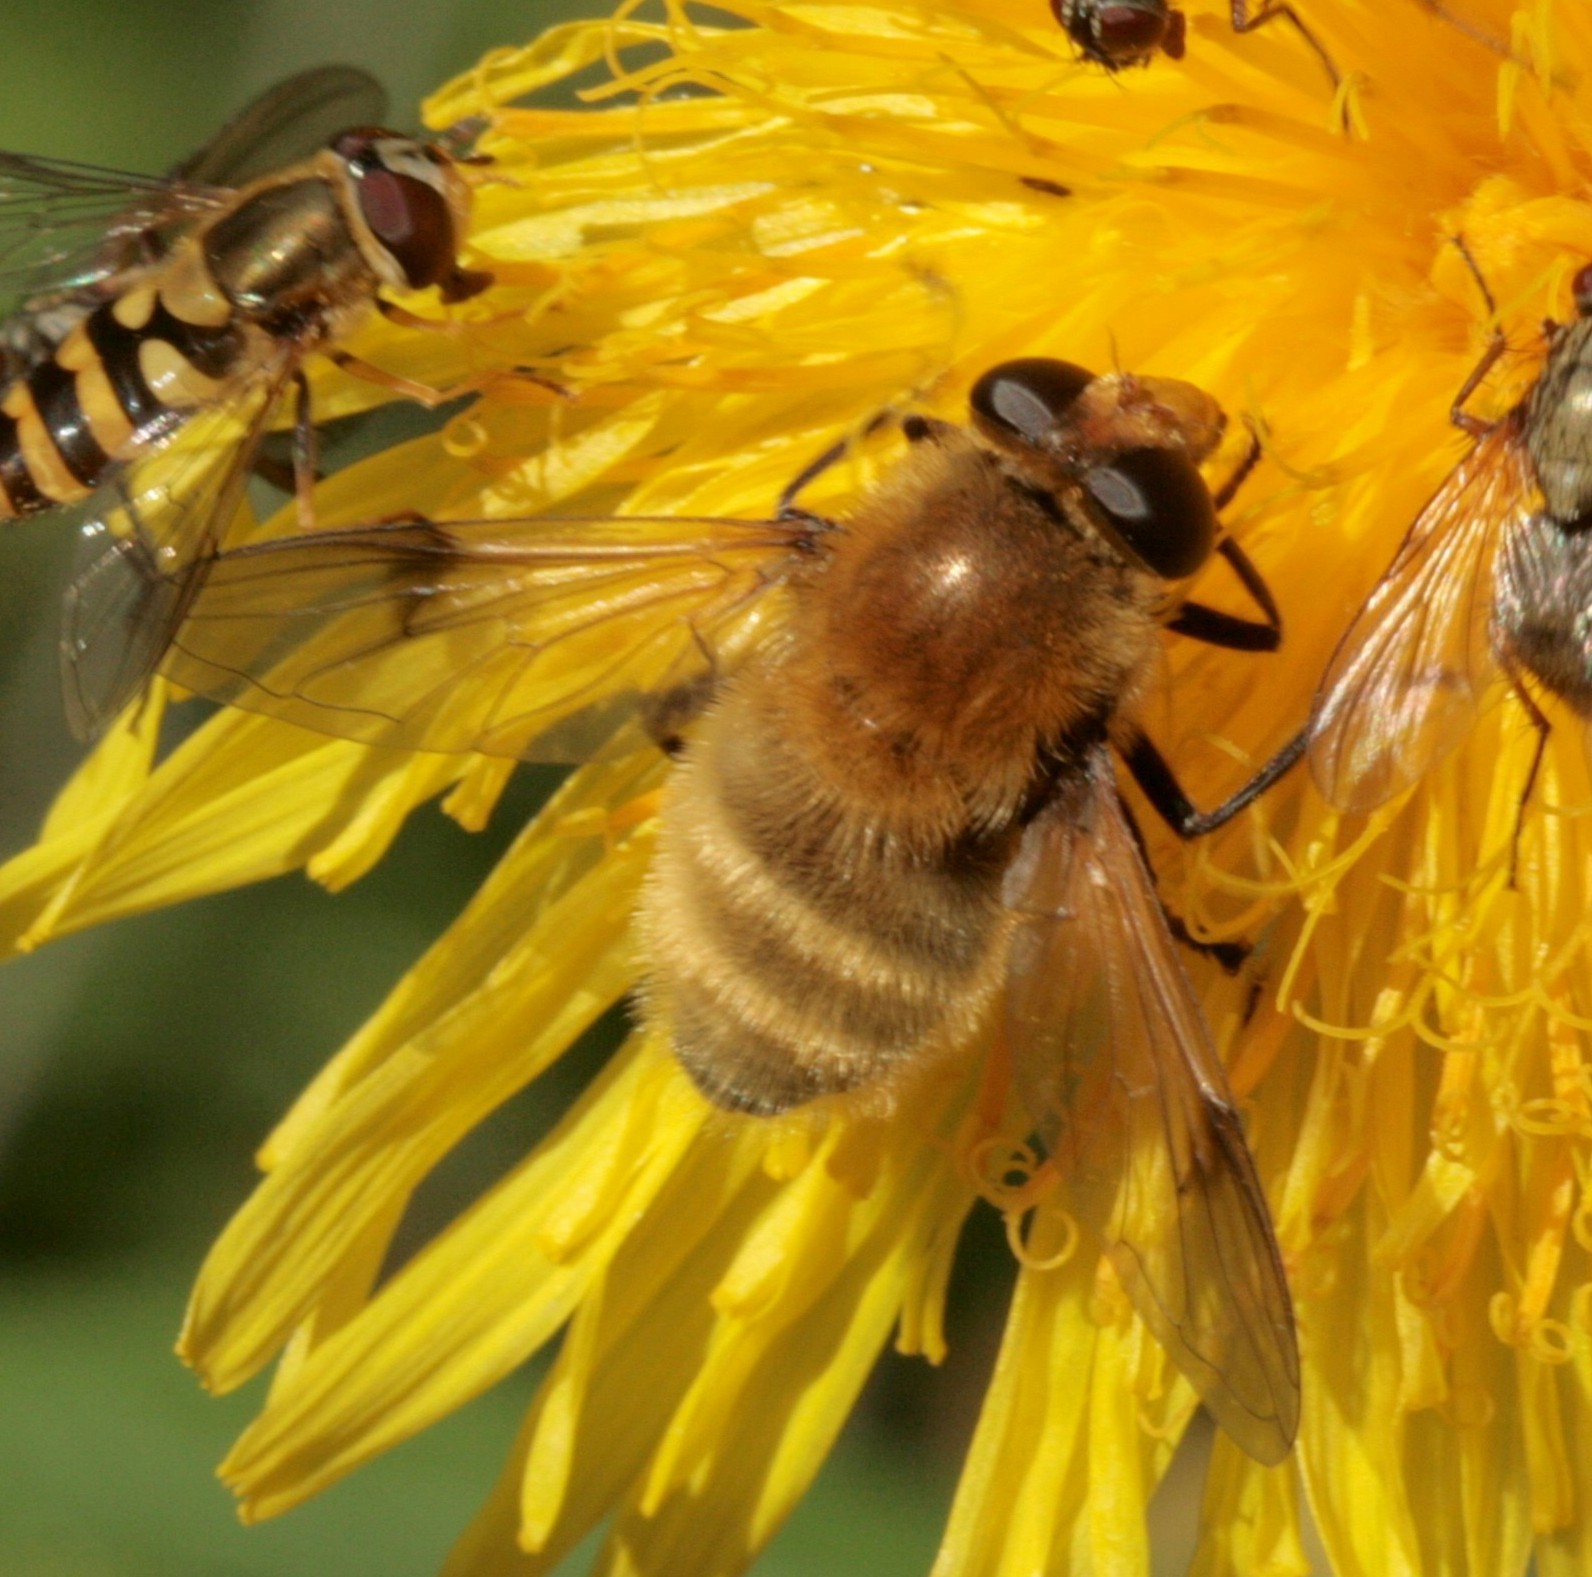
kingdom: Animalia
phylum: Arthropoda
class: Insecta
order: Diptera
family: Syrphidae
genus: Sericomyia
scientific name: Sericomyia superbiens
